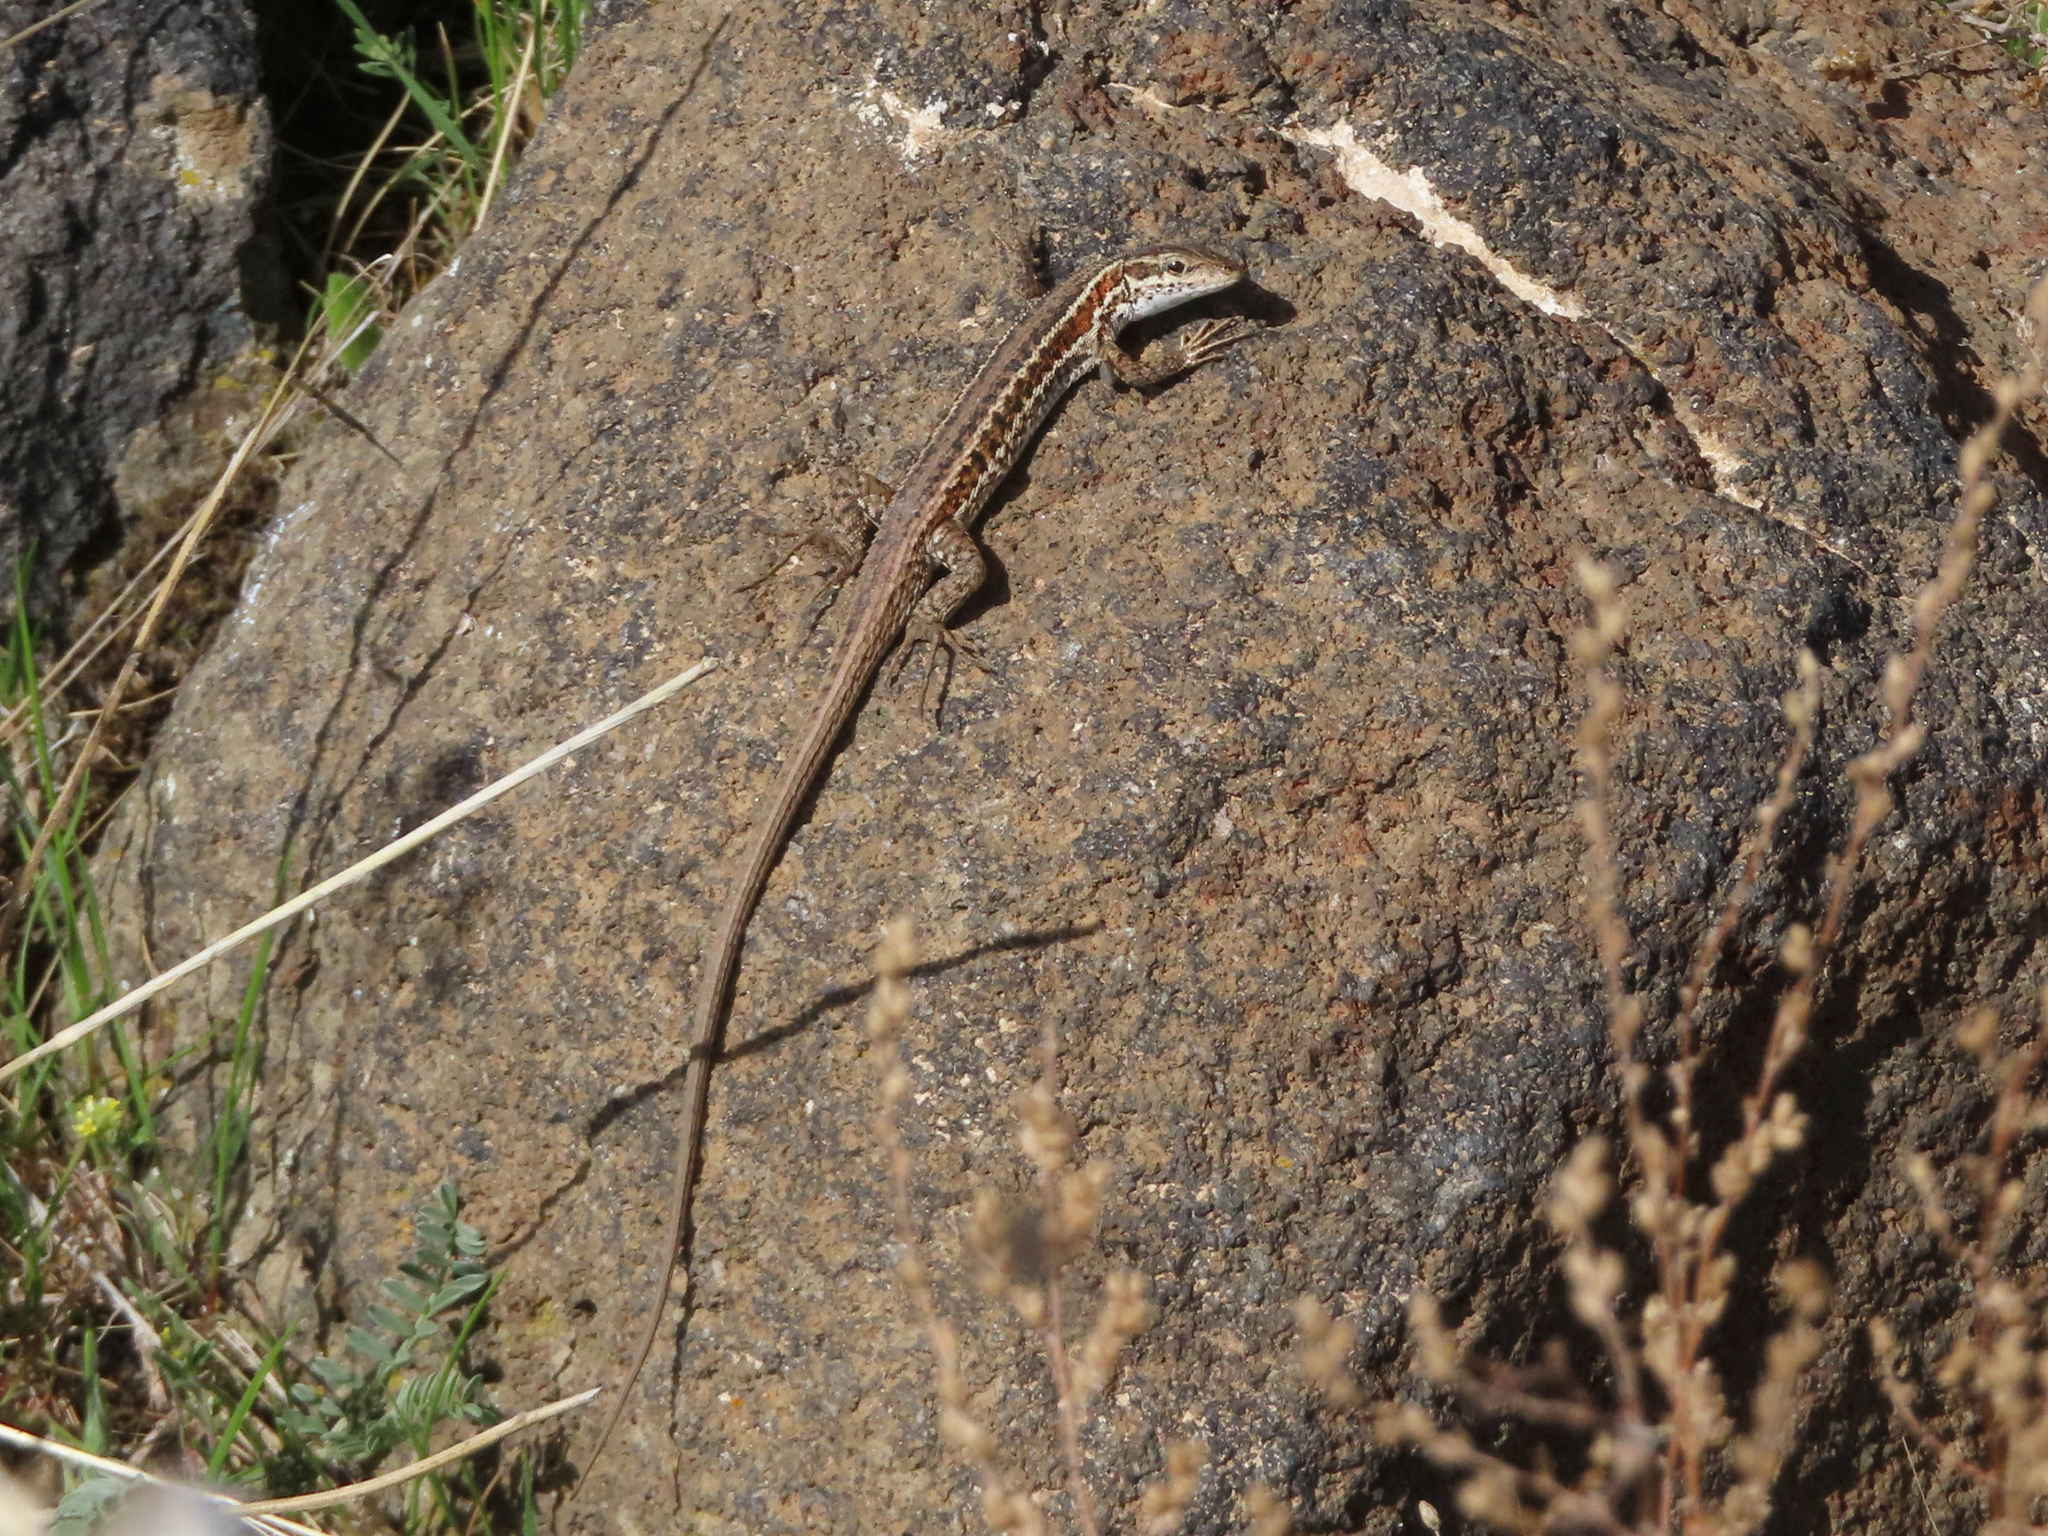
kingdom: Animalia
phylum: Chordata
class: Squamata
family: Lacertidae
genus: Ophisops
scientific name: Ophisops elegans
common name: Snake-eyed lizard
